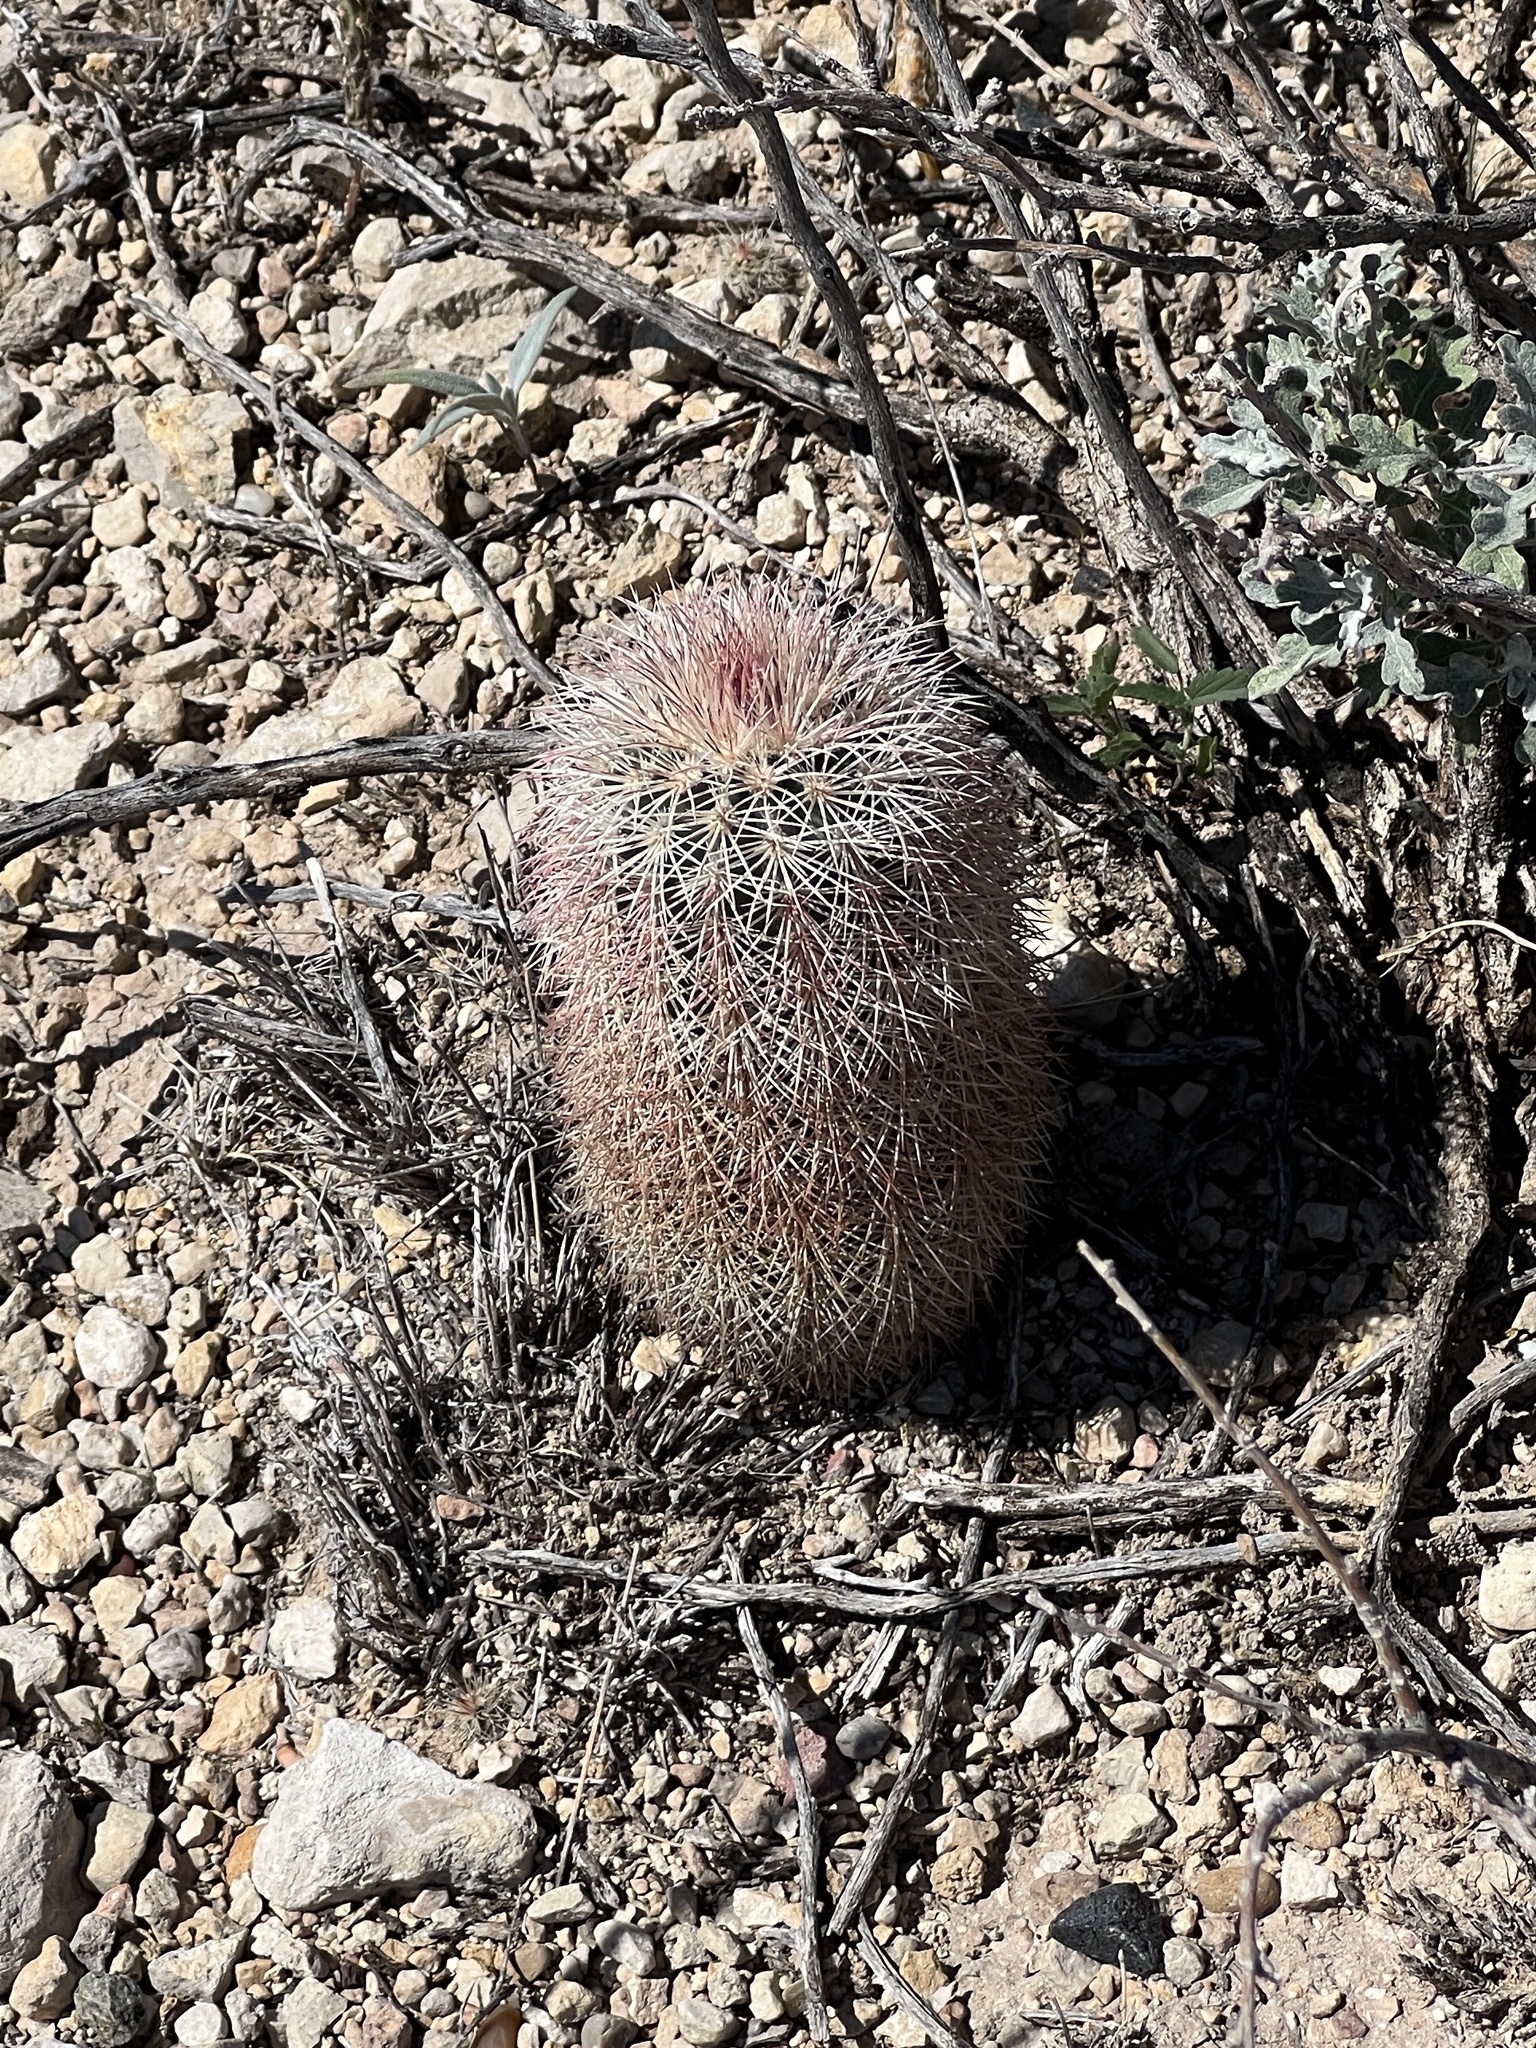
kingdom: Plantae
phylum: Tracheophyta
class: Magnoliopsida
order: Caryophyllales
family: Cactaceae
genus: Echinocereus
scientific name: Echinocereus dasyacanthus
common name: Spiny hedgehog cactus
